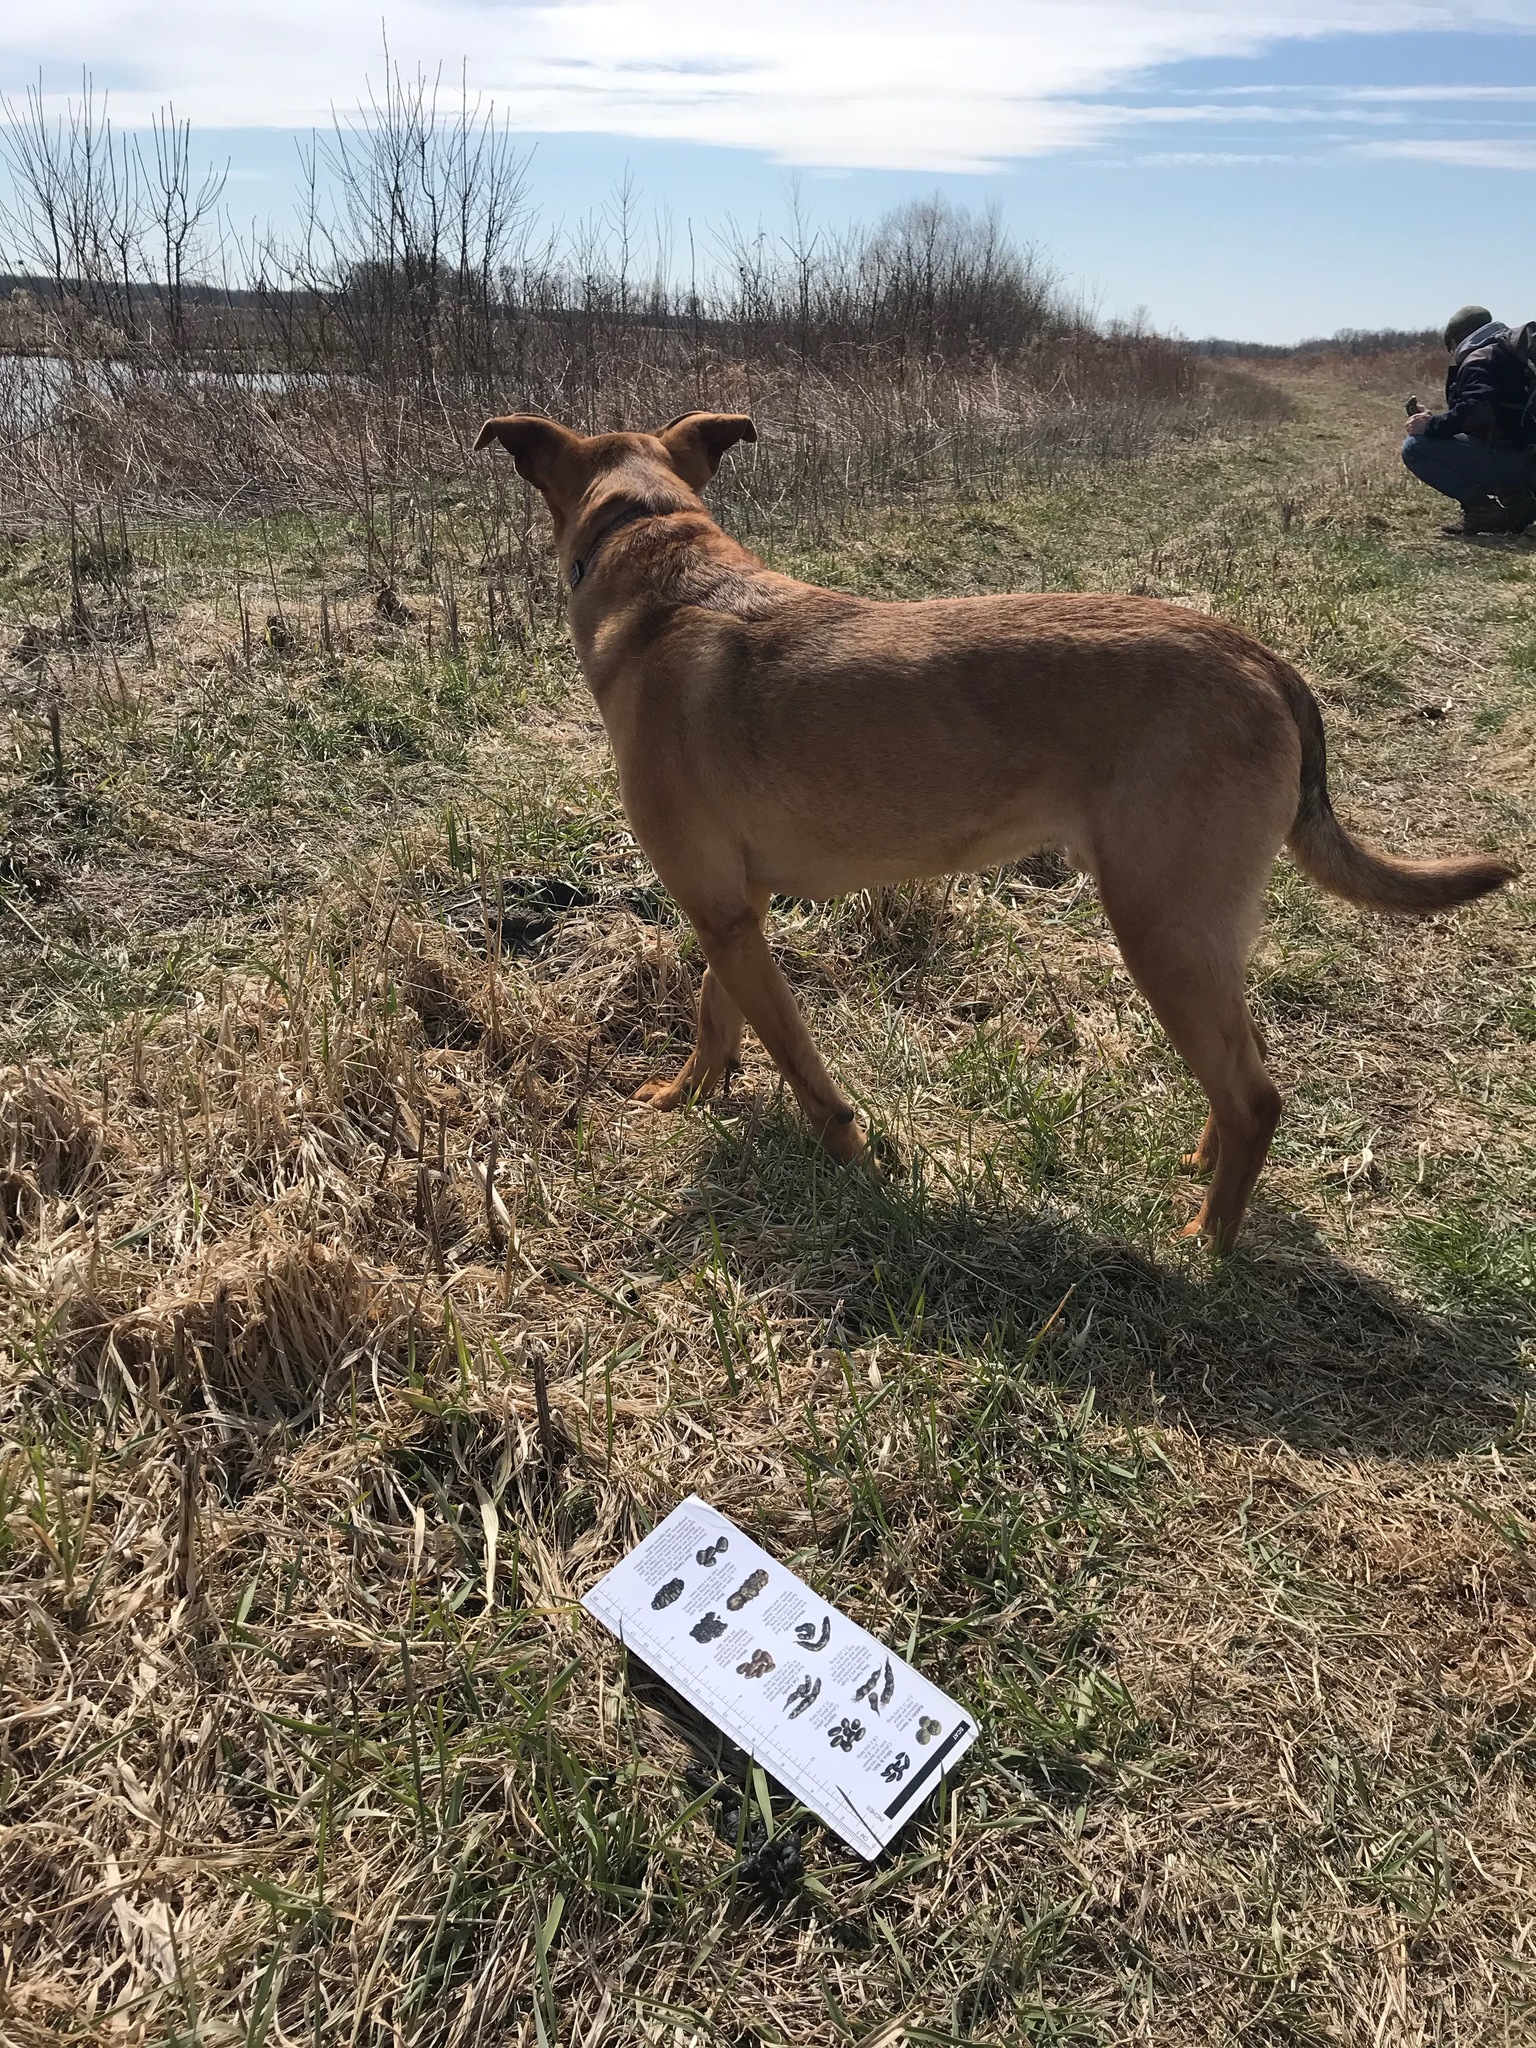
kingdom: Animalia
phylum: Chordata
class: Mammalia
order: Carnivora
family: Mustelidae
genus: Mustela
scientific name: Mustela
